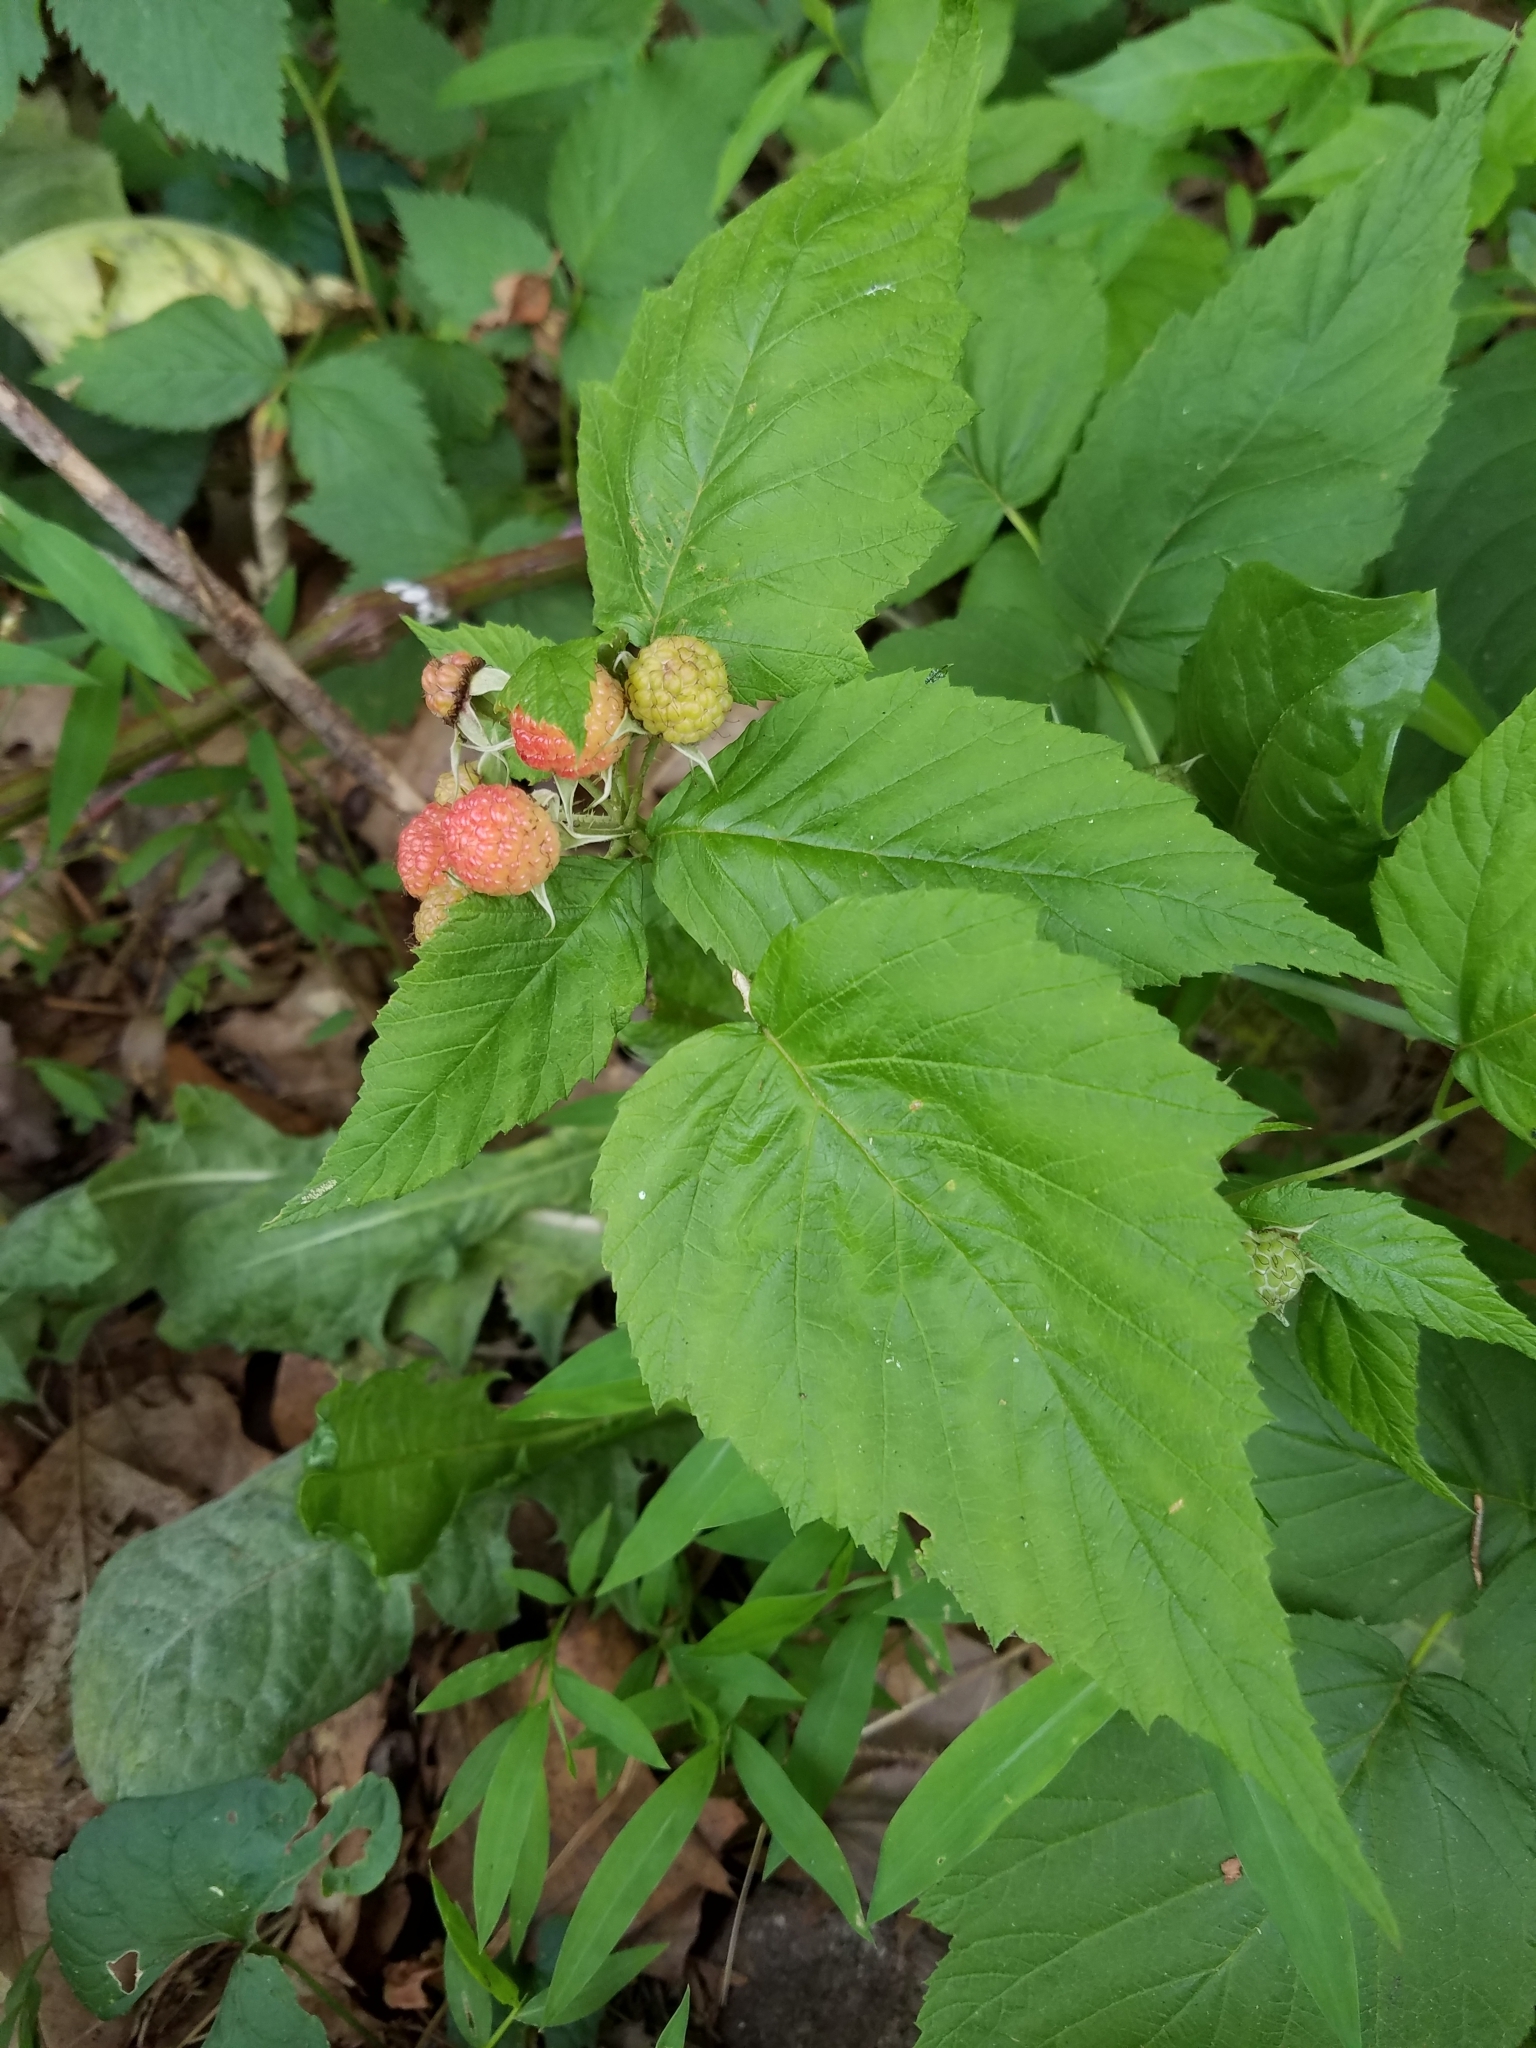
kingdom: Plantae
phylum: Tracheophyta
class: Magnoliopsida
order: Rosales
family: Rosaceae
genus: Rubus
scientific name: Rubus occidentalis
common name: Black raspberry
